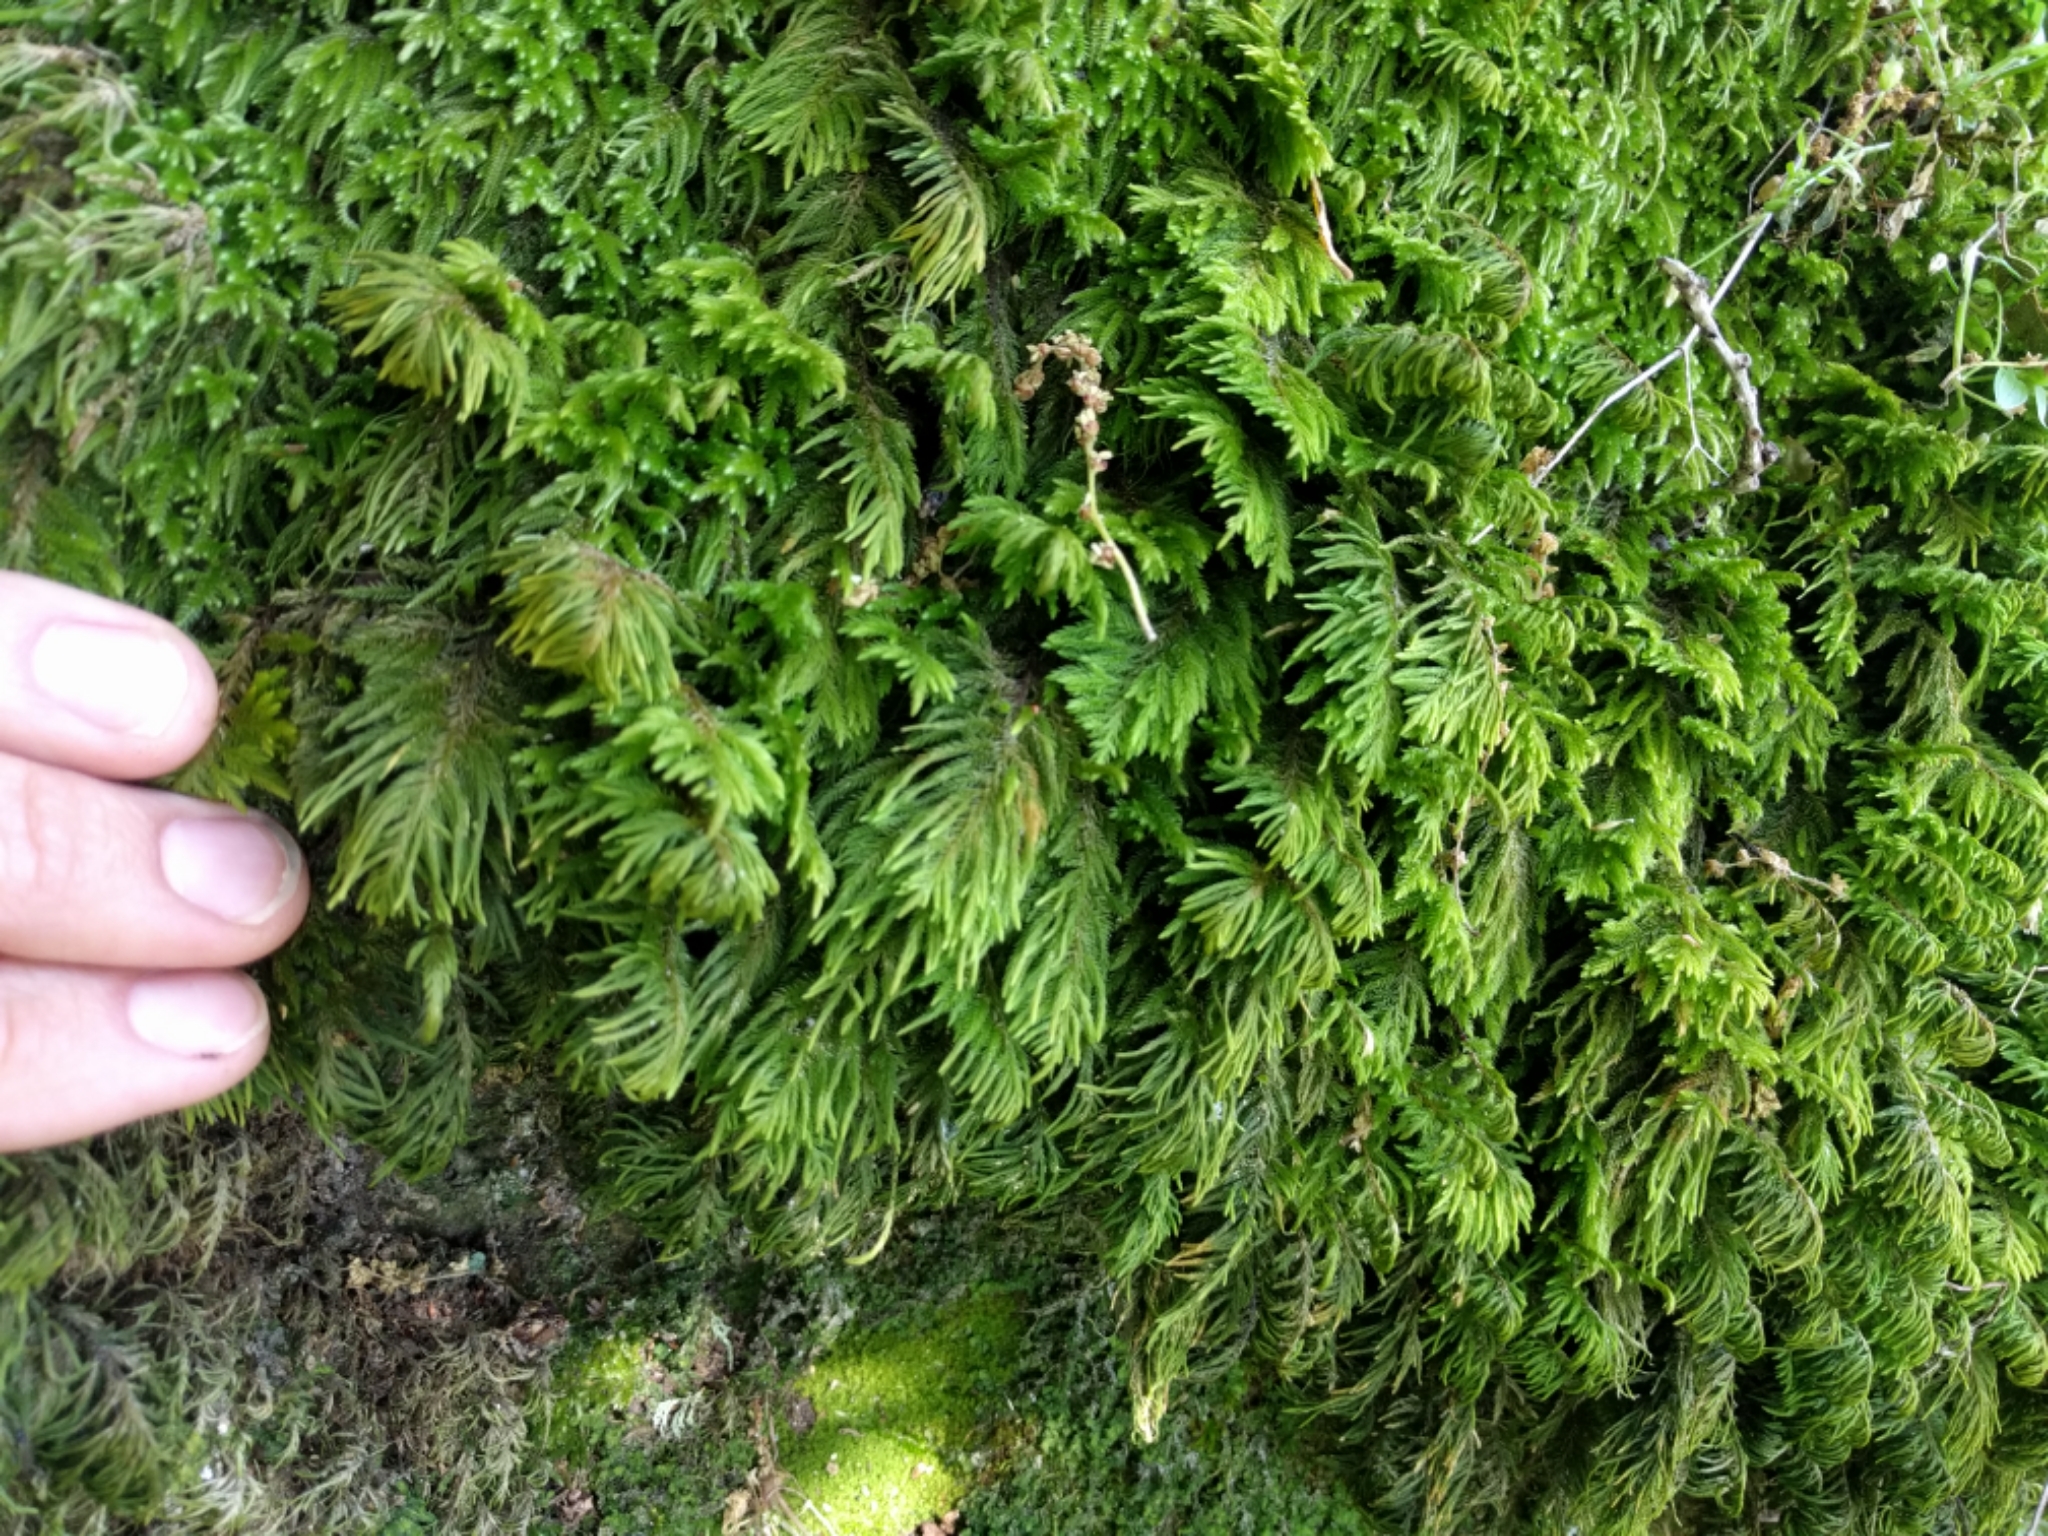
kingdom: Plantae
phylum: Bryophyta
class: Bryopsida
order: Hypnales
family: Cryphaeaceae
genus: Dendroalsia
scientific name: Dendroalsia abietina
